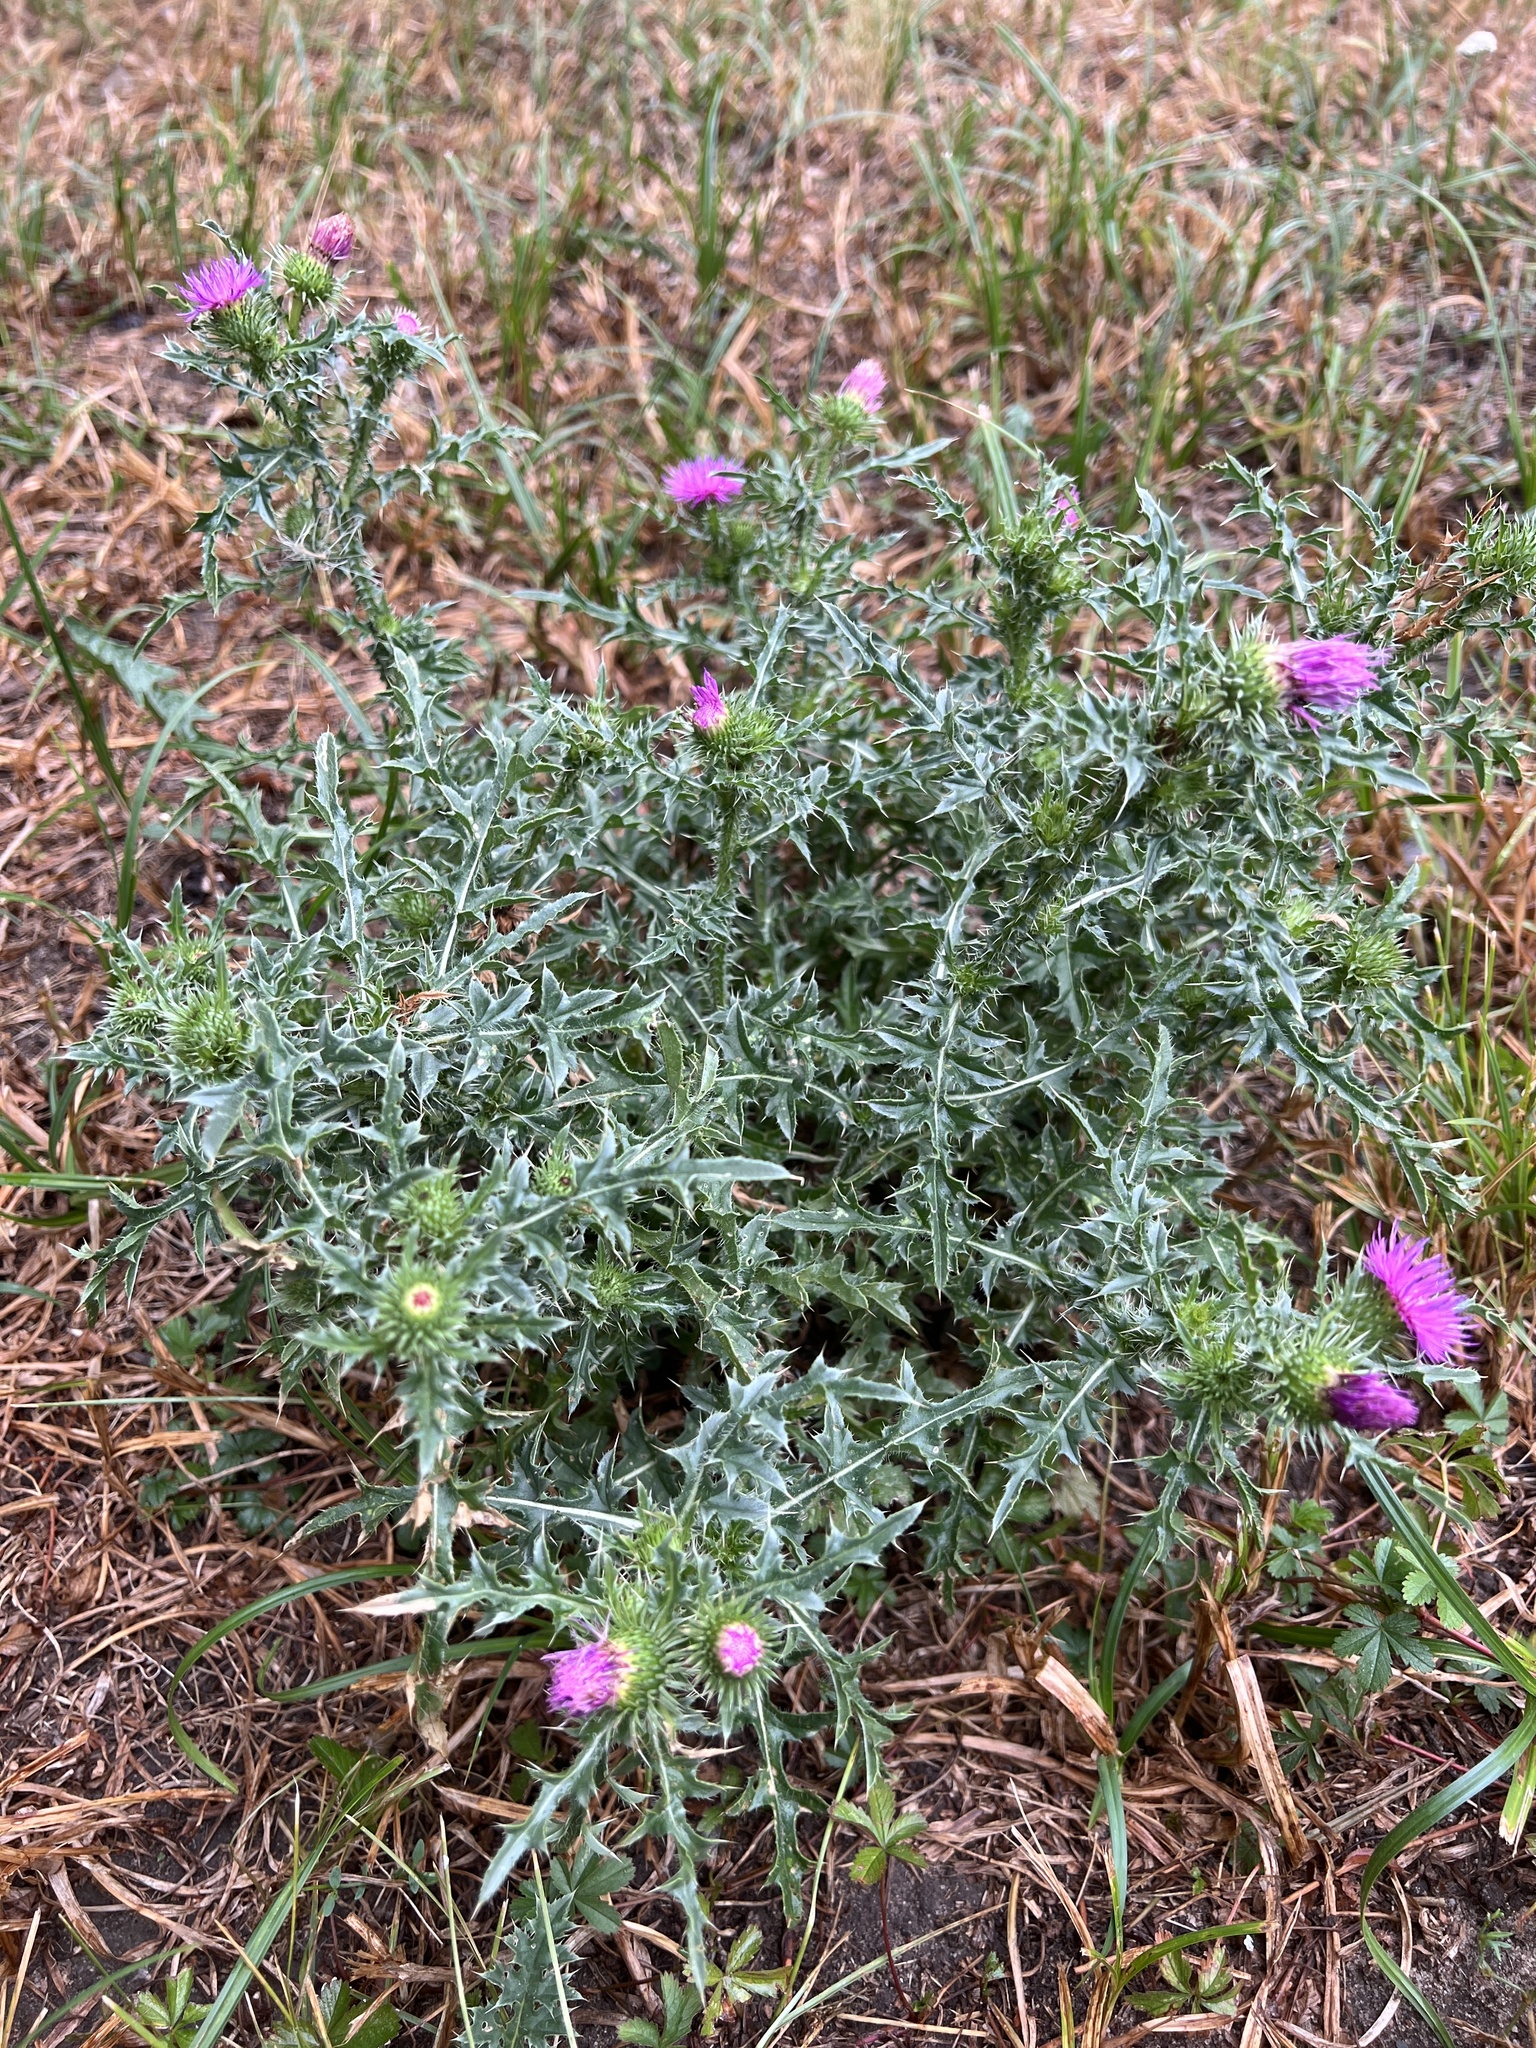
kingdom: Plantae
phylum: Tracheophyta
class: Magnoliopsida
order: Asterales
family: Asteraceae
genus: Carduus
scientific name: Carduus acanthoides
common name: Plumeless thistle
